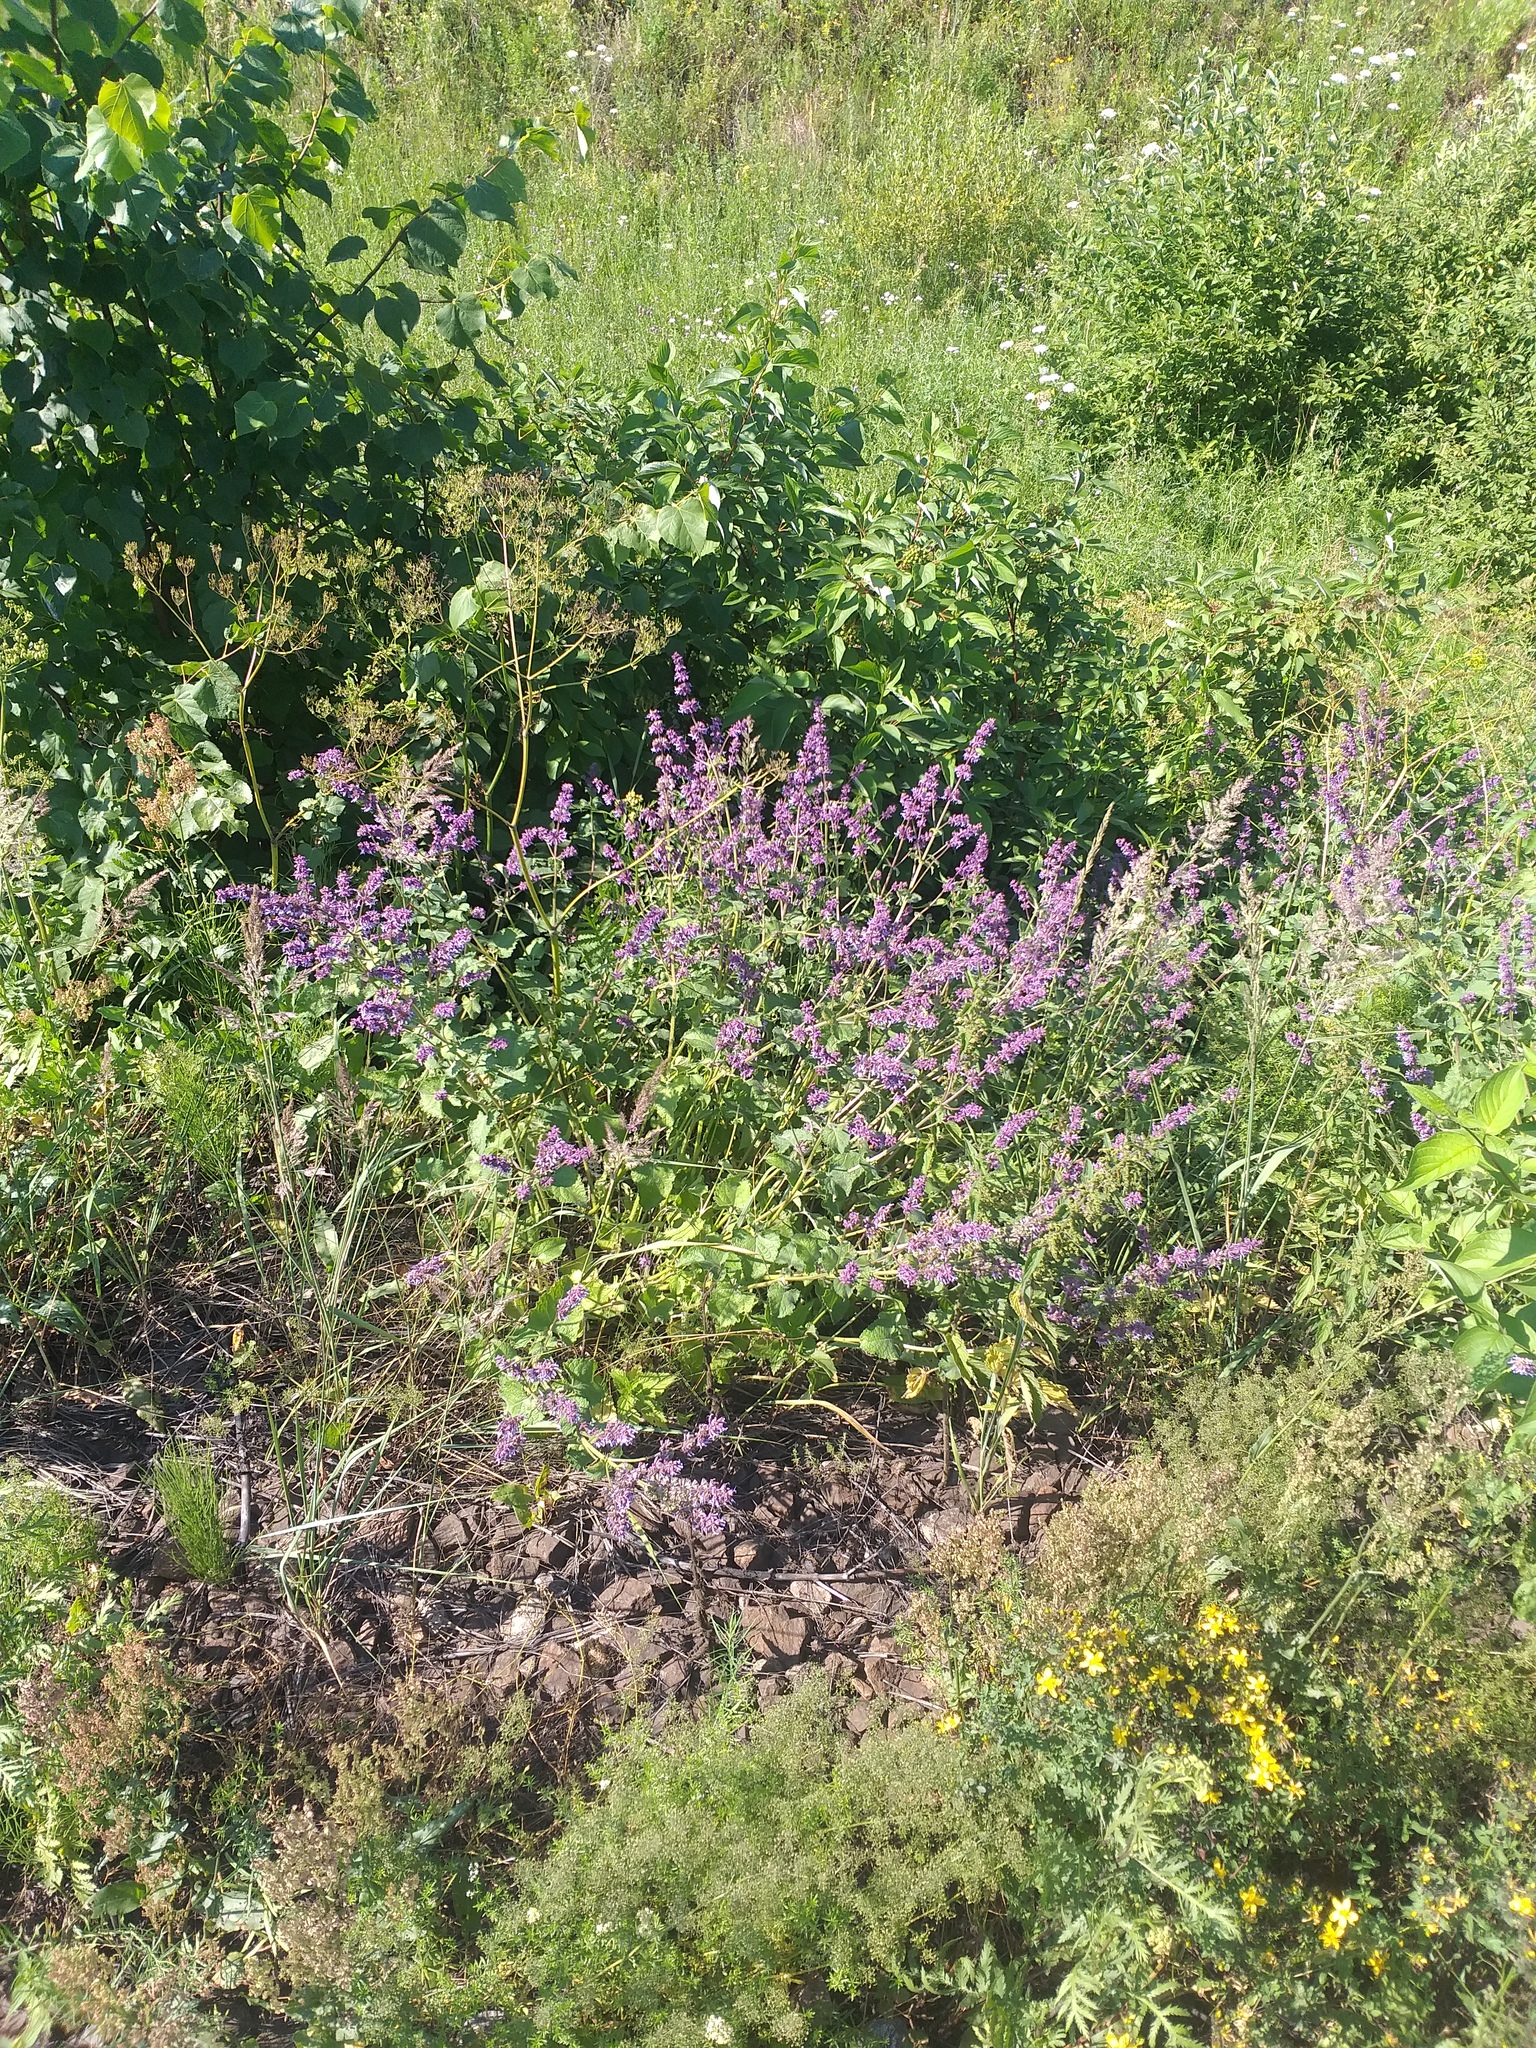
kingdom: Plantae
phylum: Tracheophyta
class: Magnoliopsida
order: Lamiales
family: Lamiaceae
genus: Salvia
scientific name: Salvia verticillata
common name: Whorled clary
